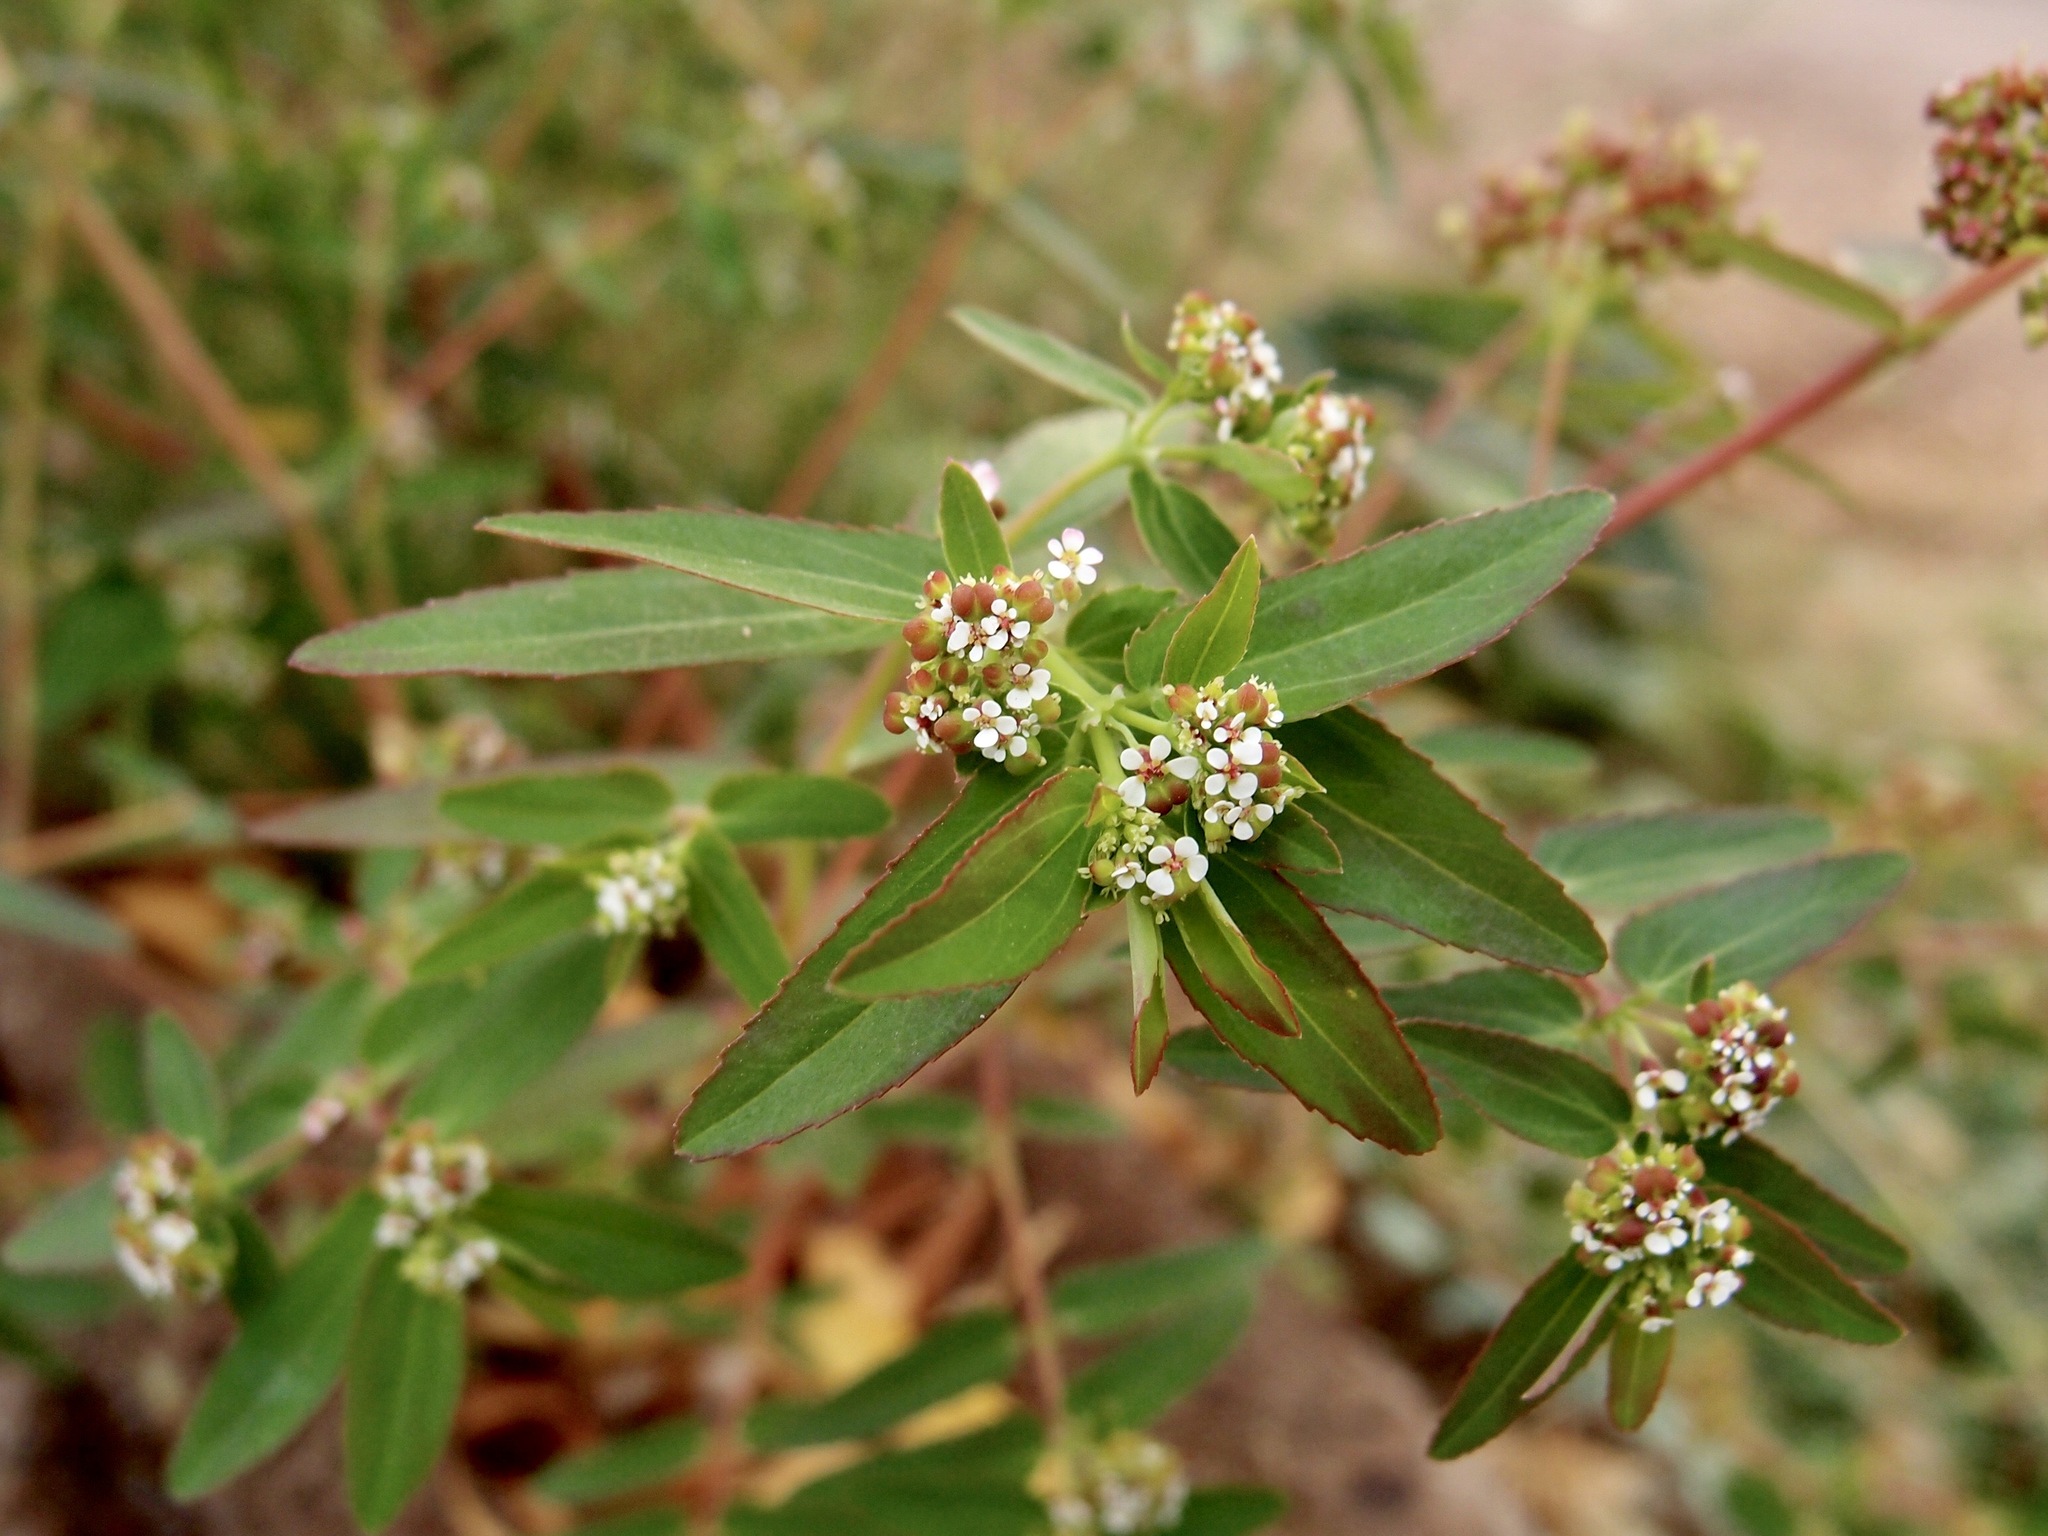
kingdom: Plantae
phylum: Tracheophyta
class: Magnoliopsida
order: Malpighiales
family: Euphorbiaceae
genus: Euphorbia
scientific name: Euphorbia hypericifolia
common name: Graceful sandmat
